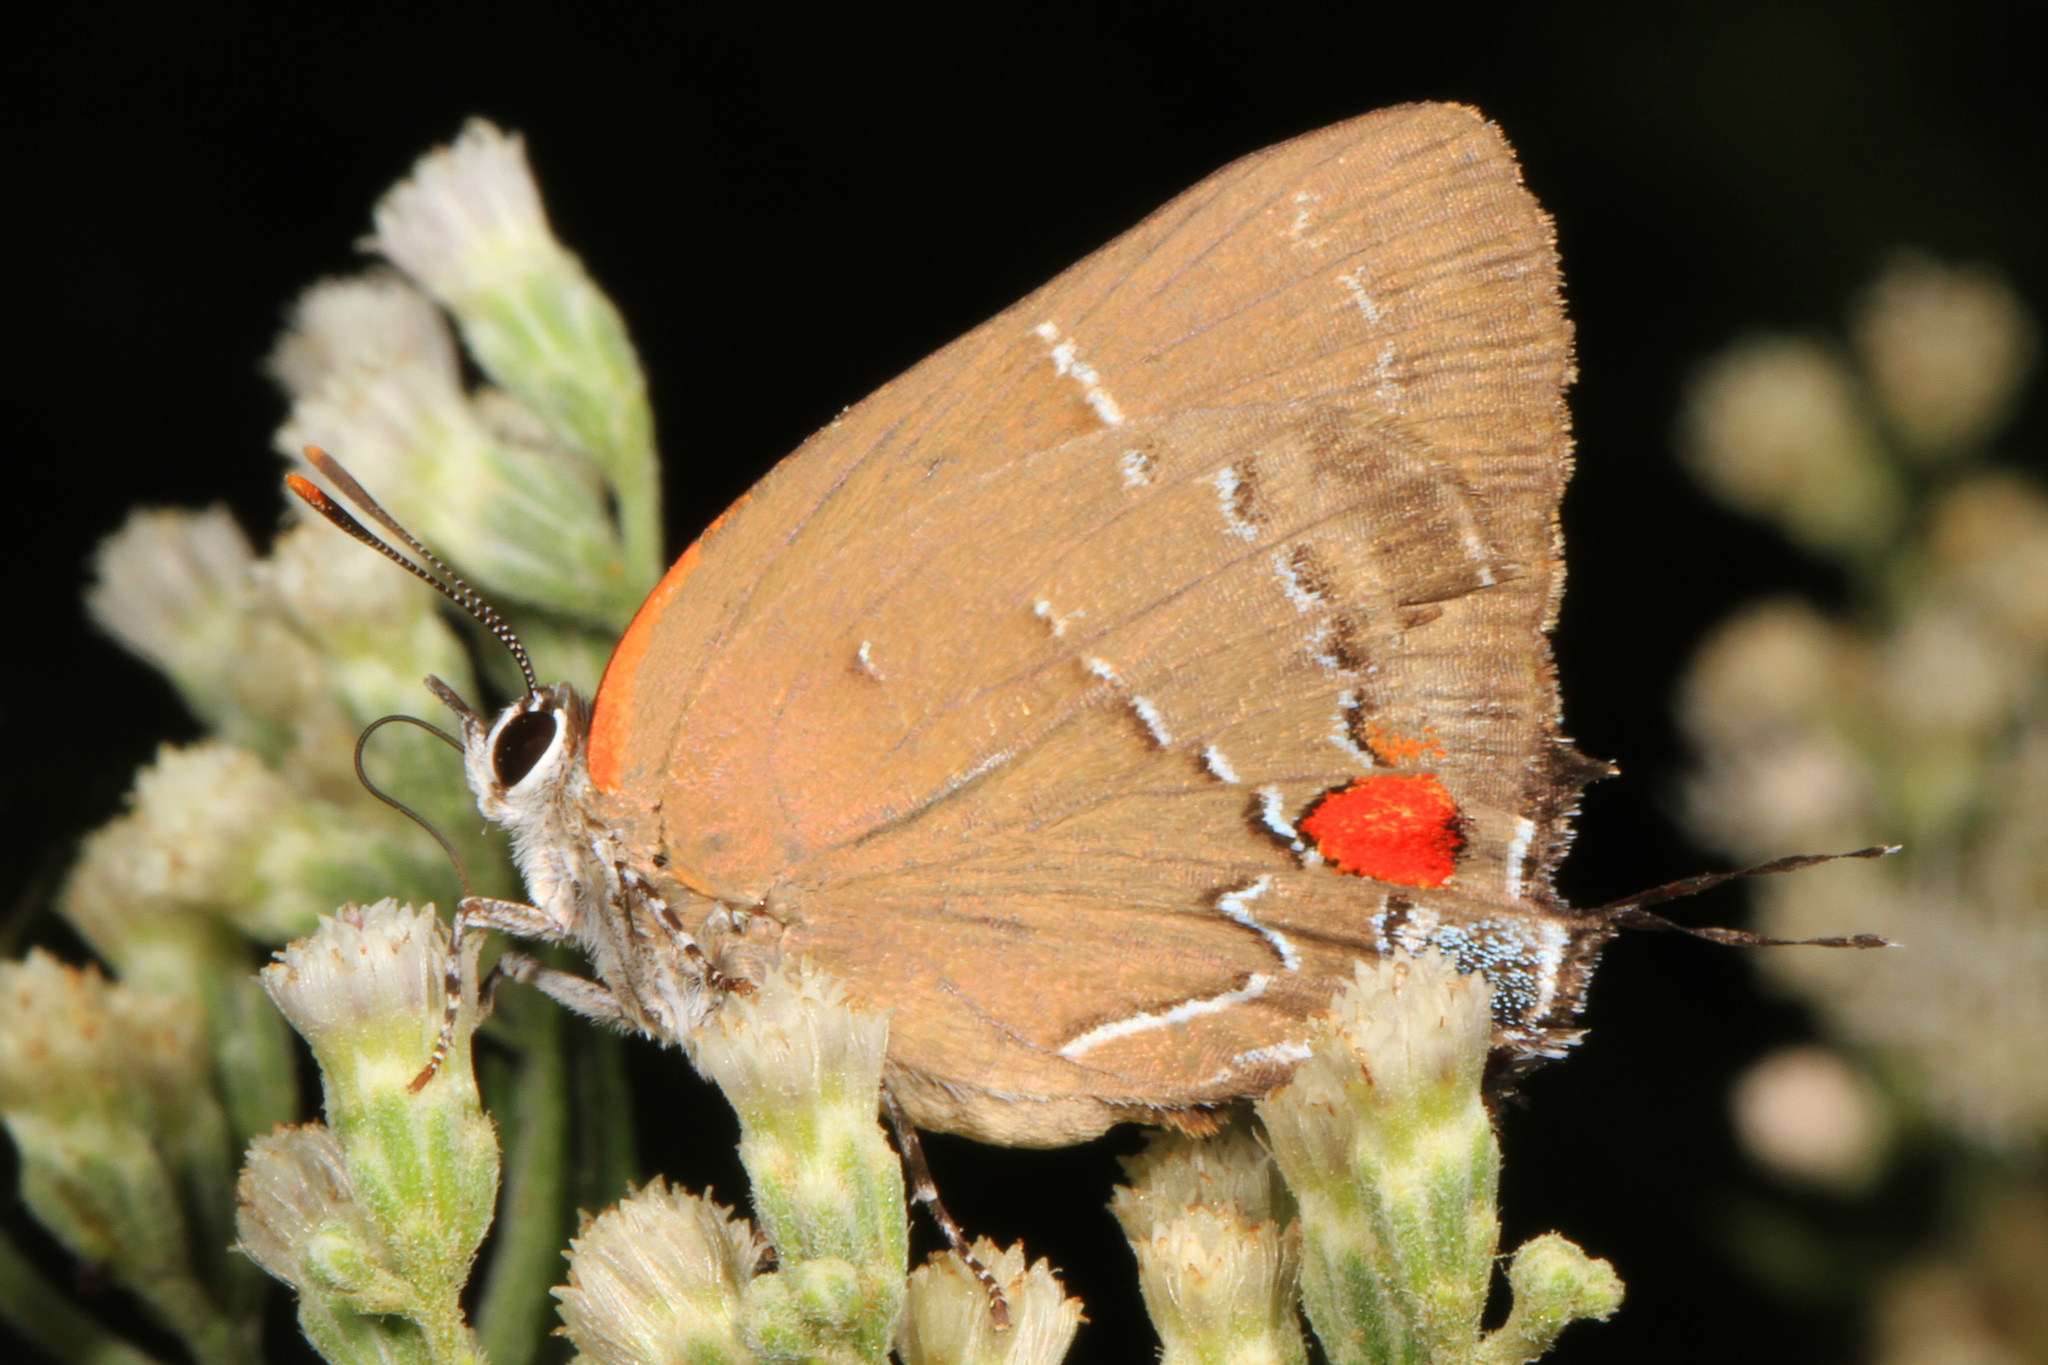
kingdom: Animalia
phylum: Arthropoda
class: Insecta
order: Lepidoptera
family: Lycaenidae
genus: Parrhasius
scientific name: Parrhasius m-album
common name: White m hairstreak
